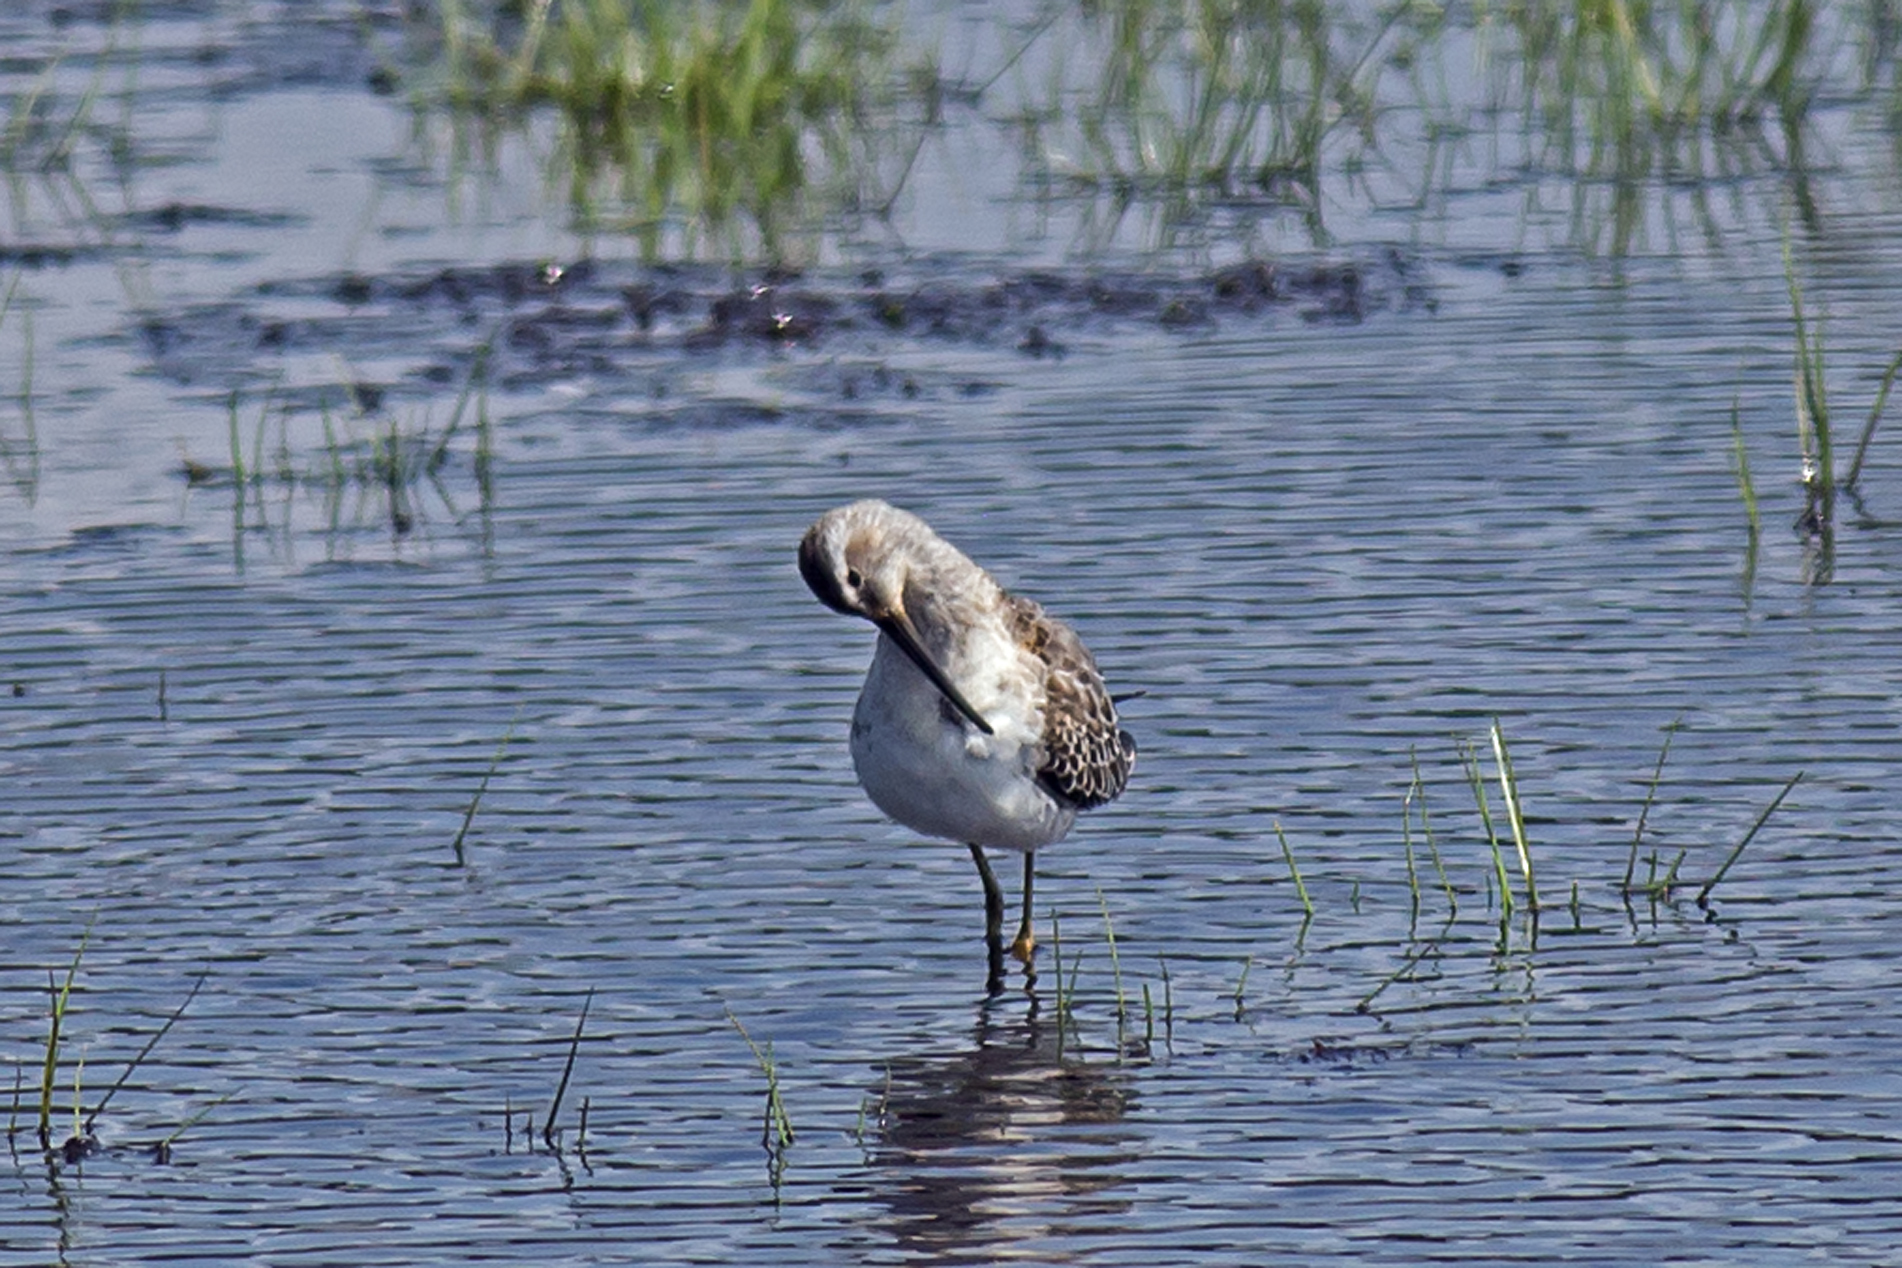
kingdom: Animalia
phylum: Chordata
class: Aves
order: Charadriiformes
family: Scolopacidae
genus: Calidris
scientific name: Calidris himantopus
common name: Stilt sandpiper
